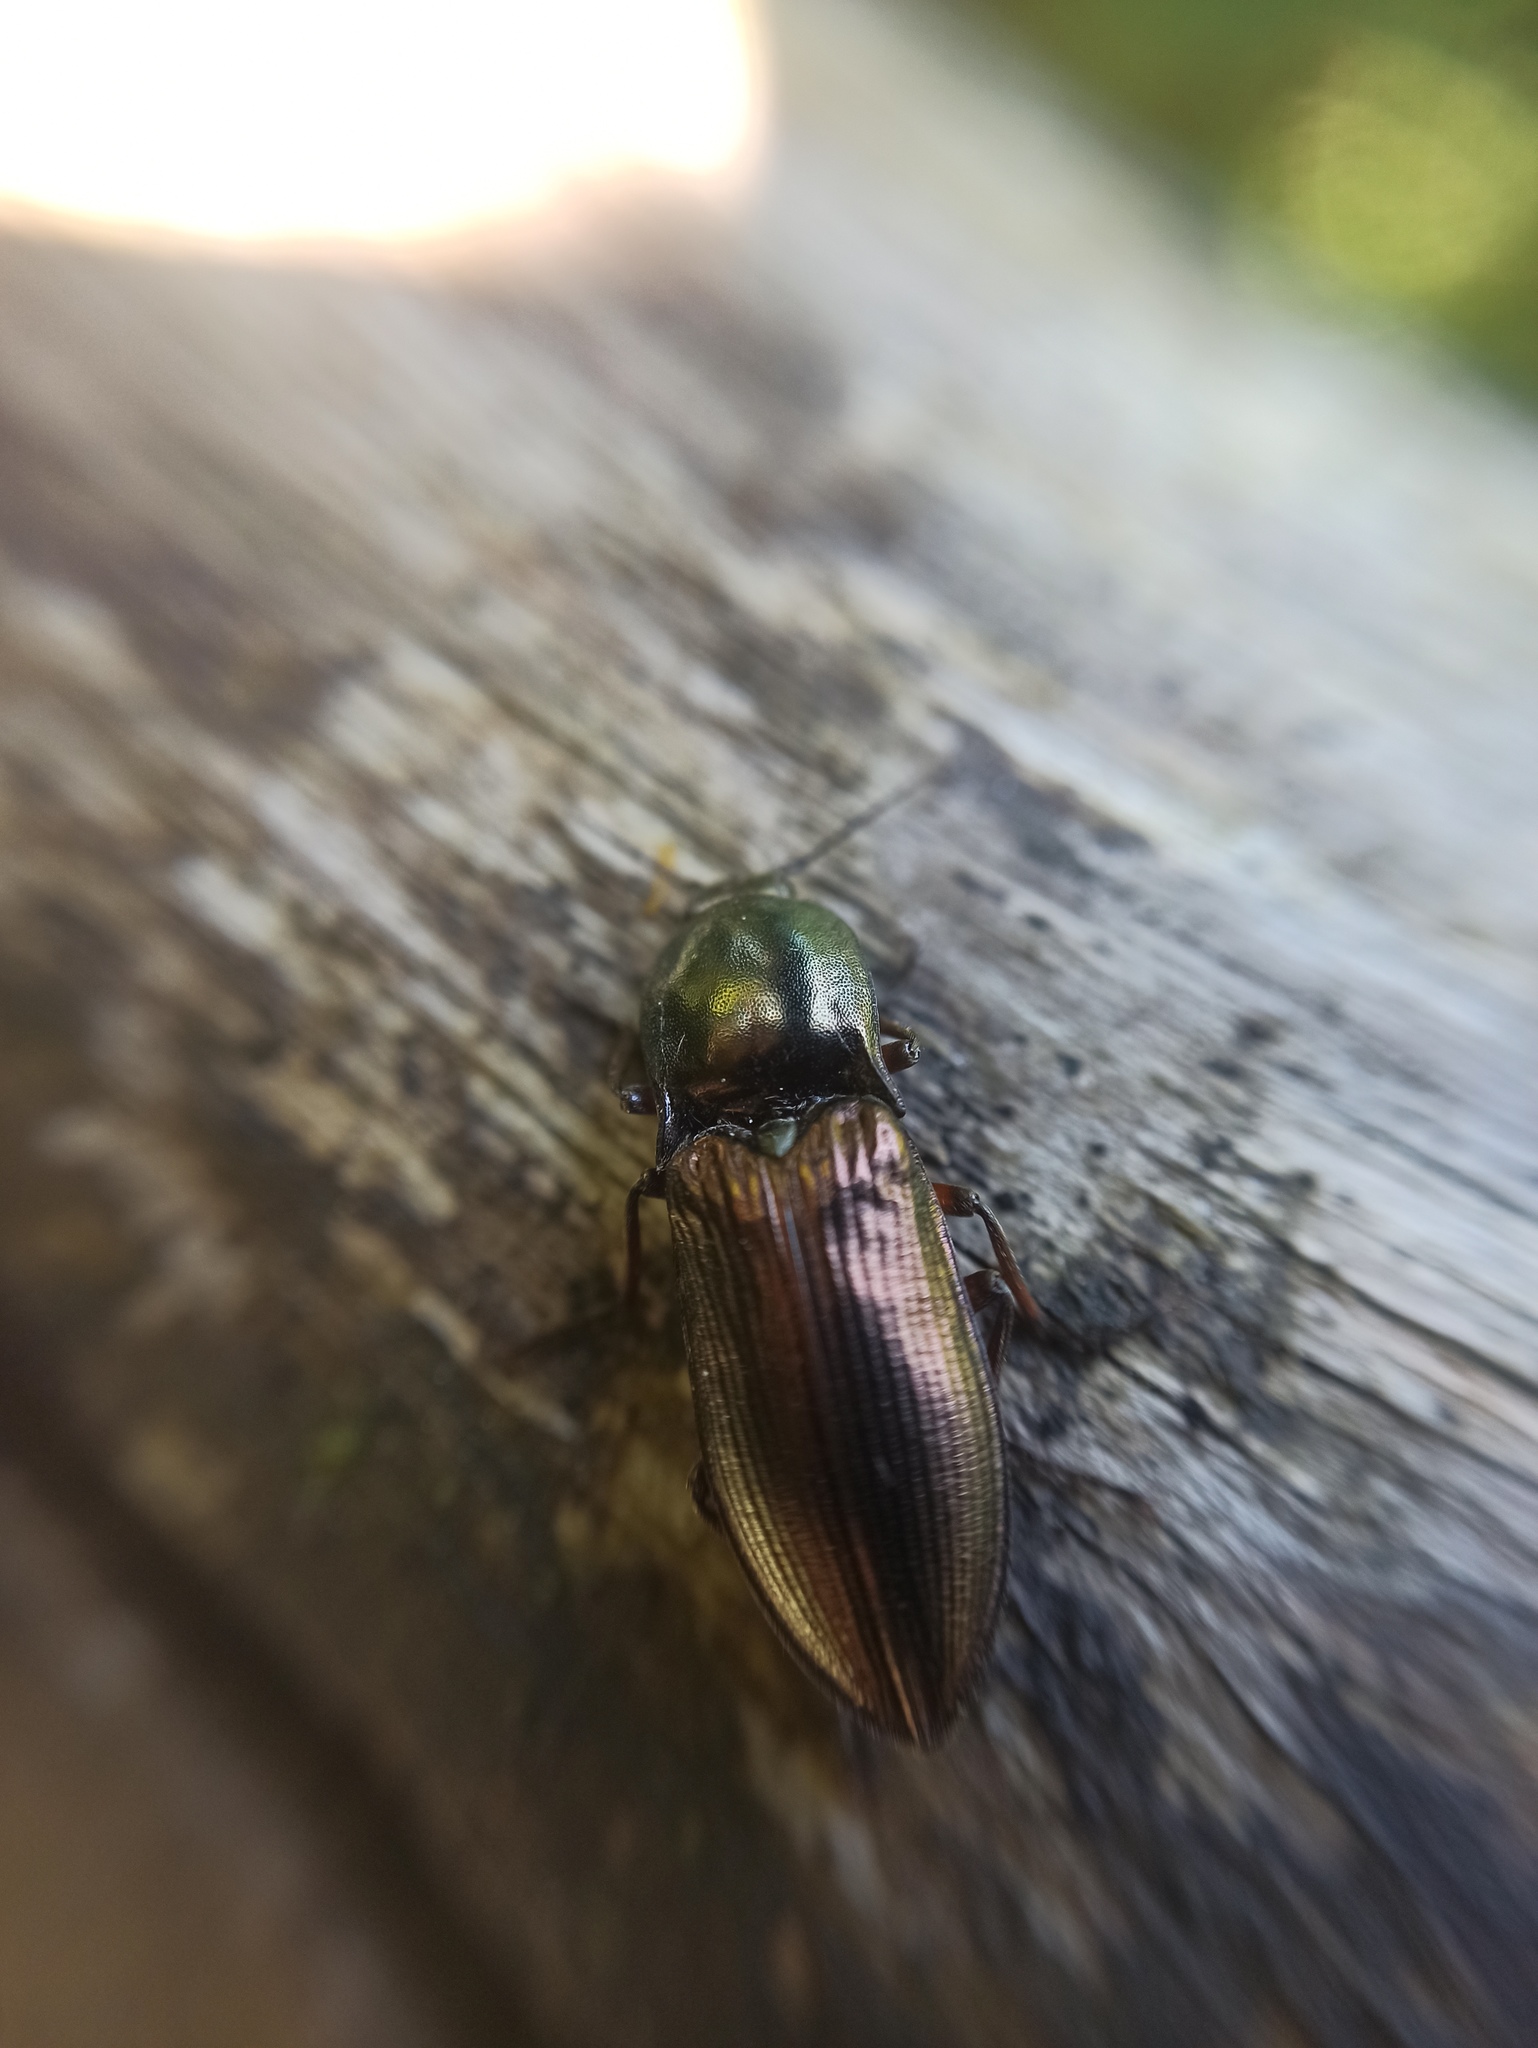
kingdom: Animalia
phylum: Arthropoda
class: Insecta
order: Coleoptera
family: Elateridae
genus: Selatosomus
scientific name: Selatosomus aeneus
